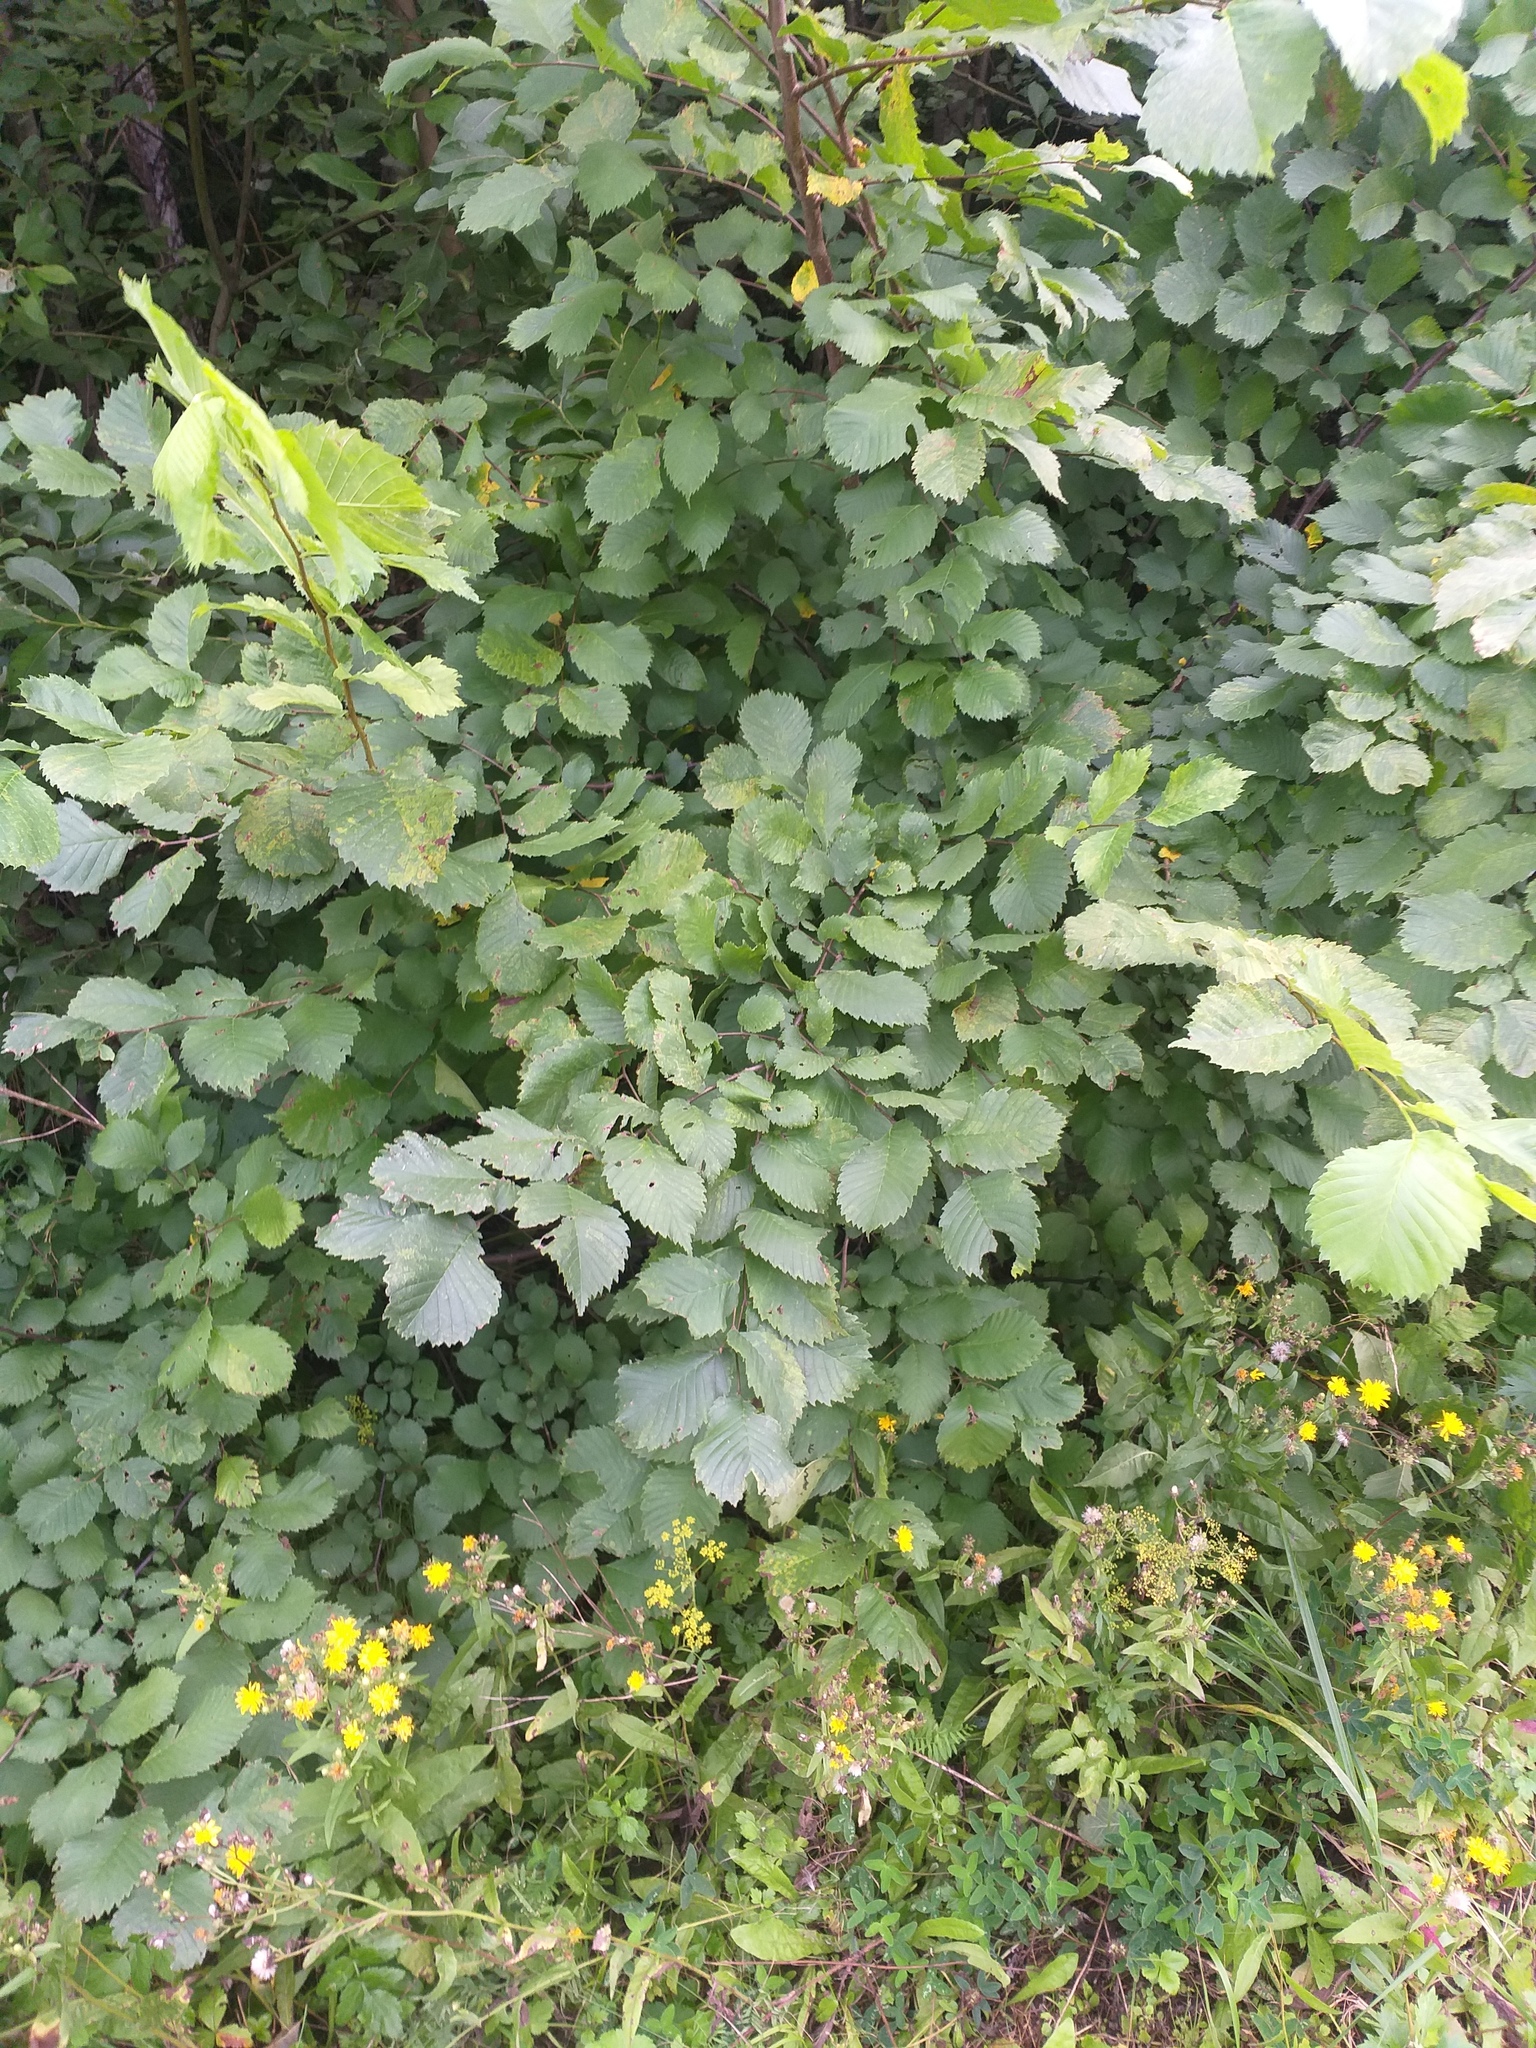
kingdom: Plantae
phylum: Tracheophyta
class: Magnoliopsida
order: Rosales
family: Ulmaceae
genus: Ulmus
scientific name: Ulmus laevis
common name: European white-elm
